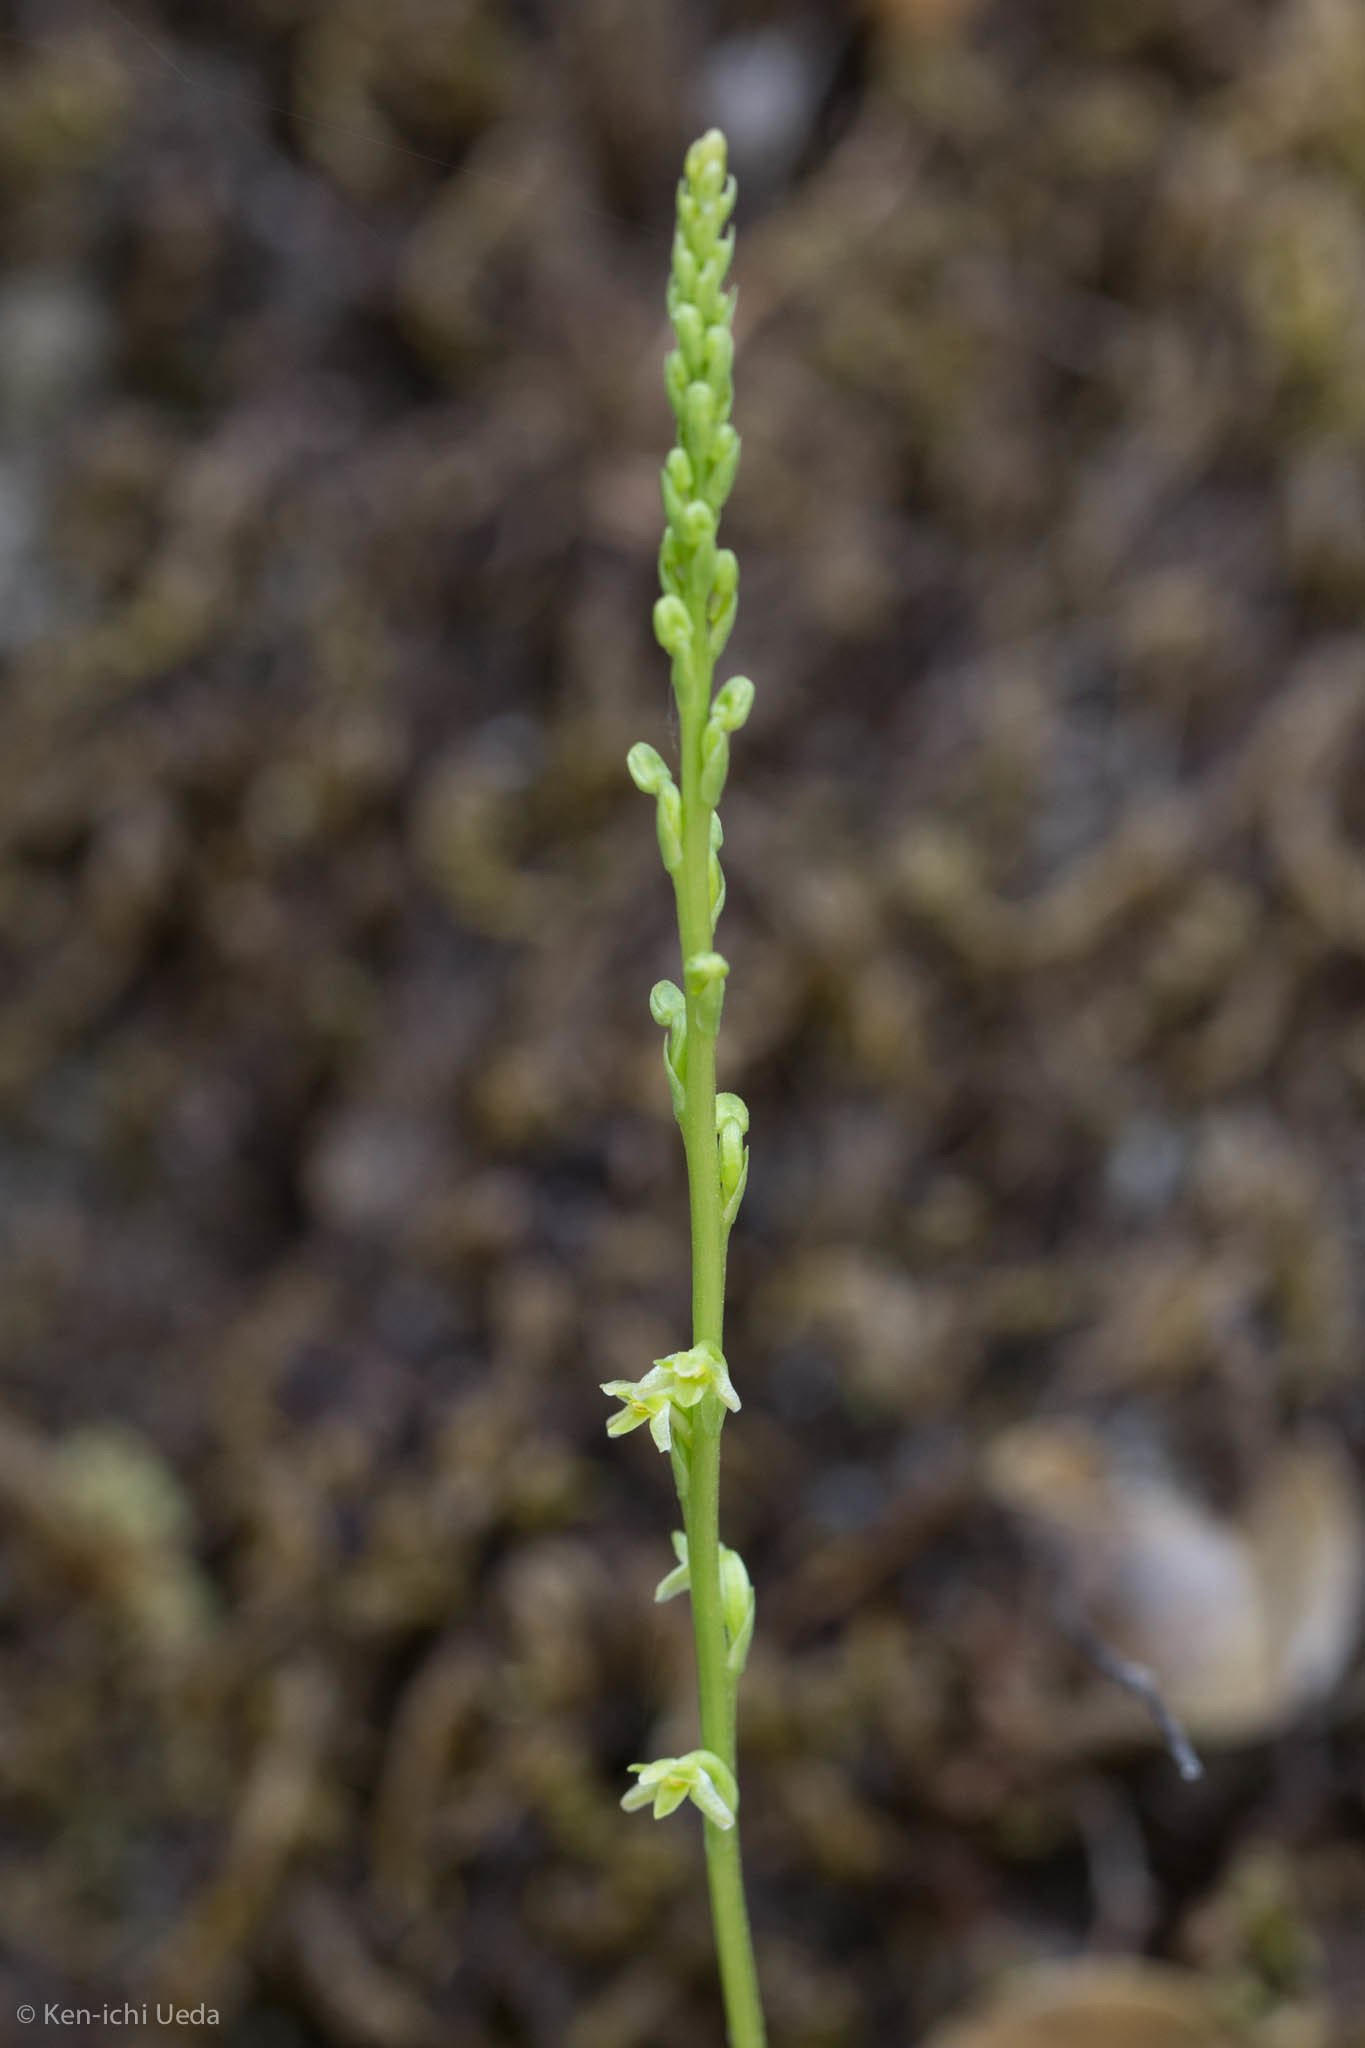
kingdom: Plantae
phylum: Tracheophyta
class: Liliopsida
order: Asparagales
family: Orchidaceae
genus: Platanthera
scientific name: Platanthera unalascensis
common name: Alaska bog orchid
